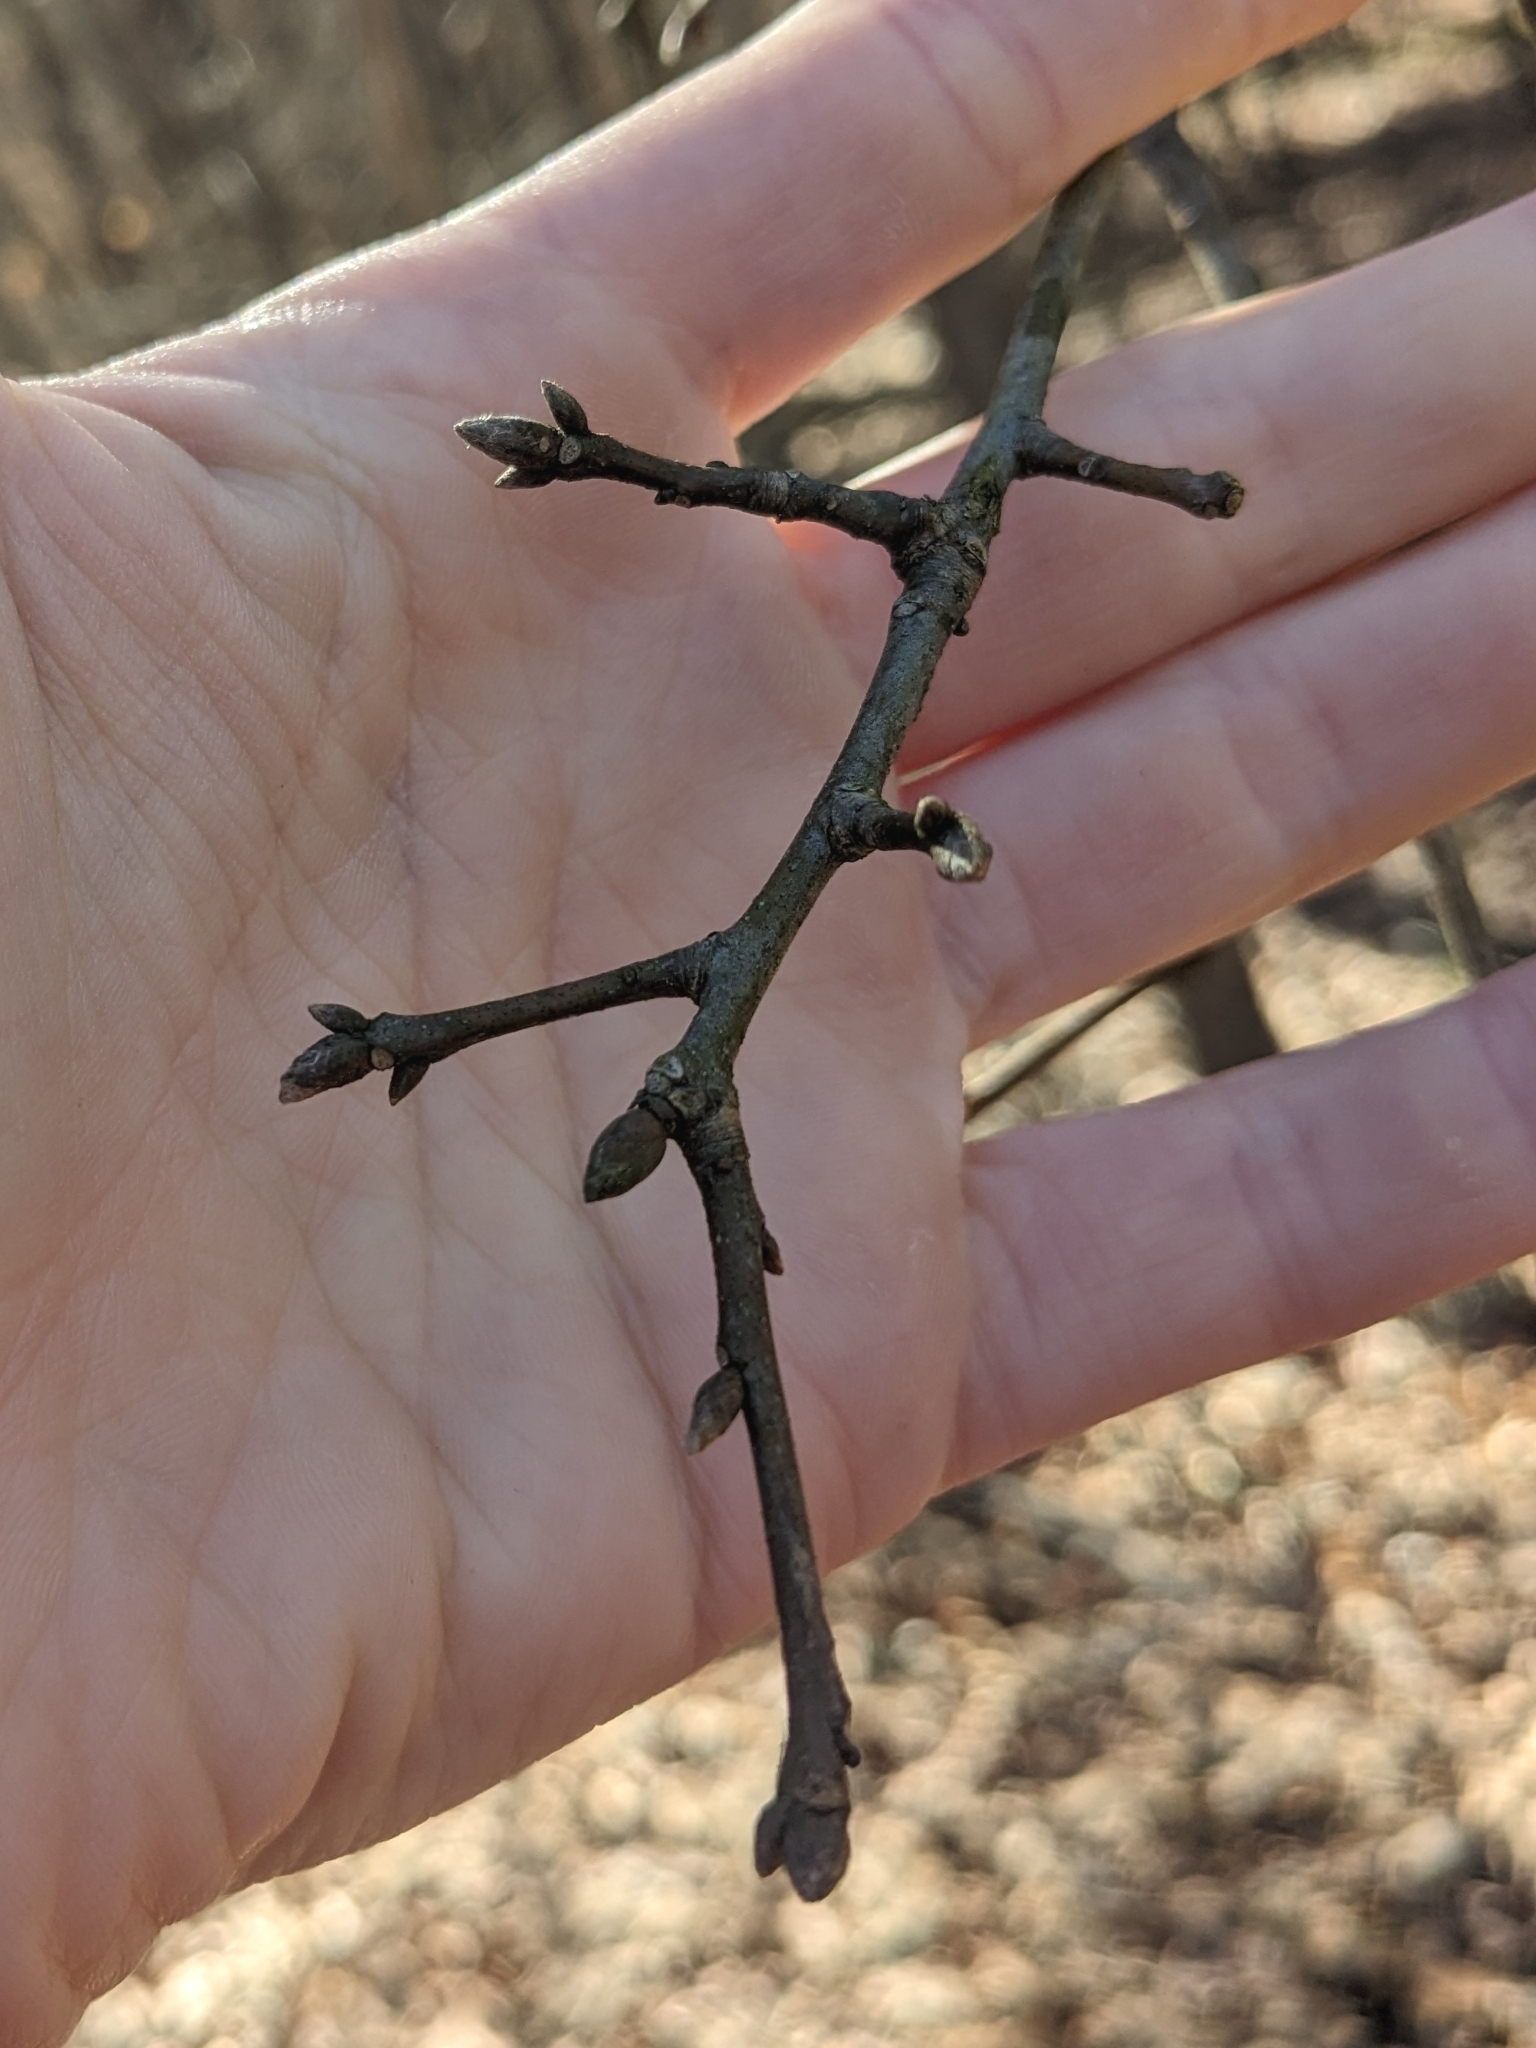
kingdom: Plantae
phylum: Tracheophyta
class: Magnoliopsida
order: Fagales
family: Fagaceae
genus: Quercus
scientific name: Quercus nigra
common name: Water oak
